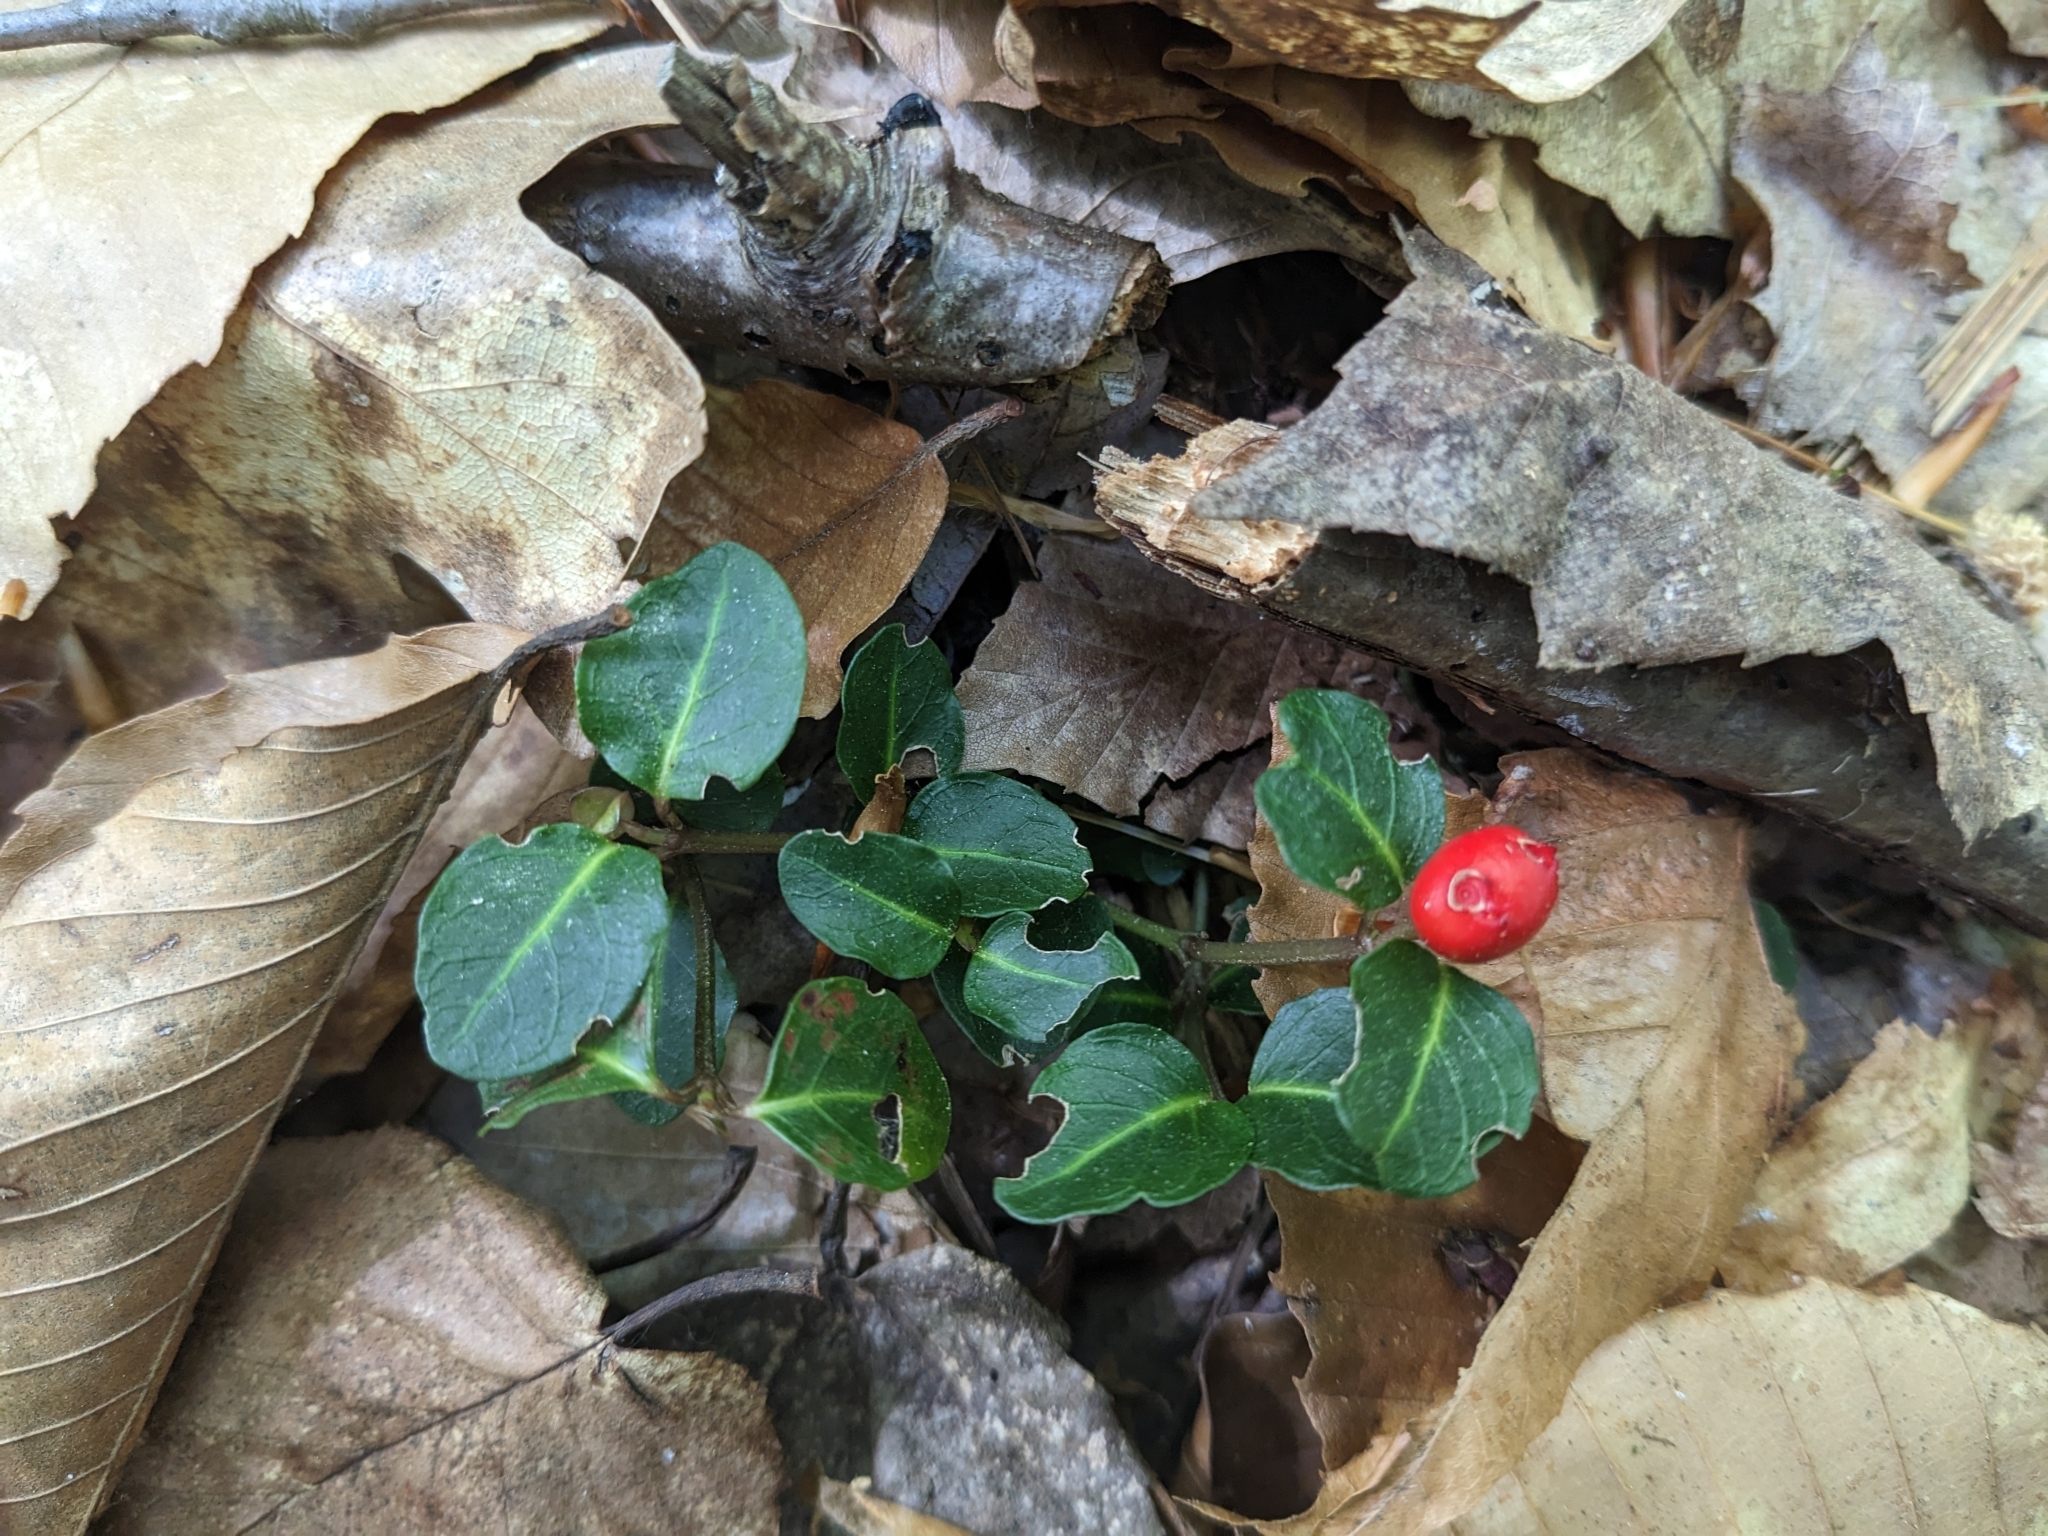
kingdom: Plantae
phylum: Tracheophyta
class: Magnoliopsida
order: Gentianales
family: Rubiaceae
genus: Mitchella
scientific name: Mitchella repens
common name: Partridge-berry
